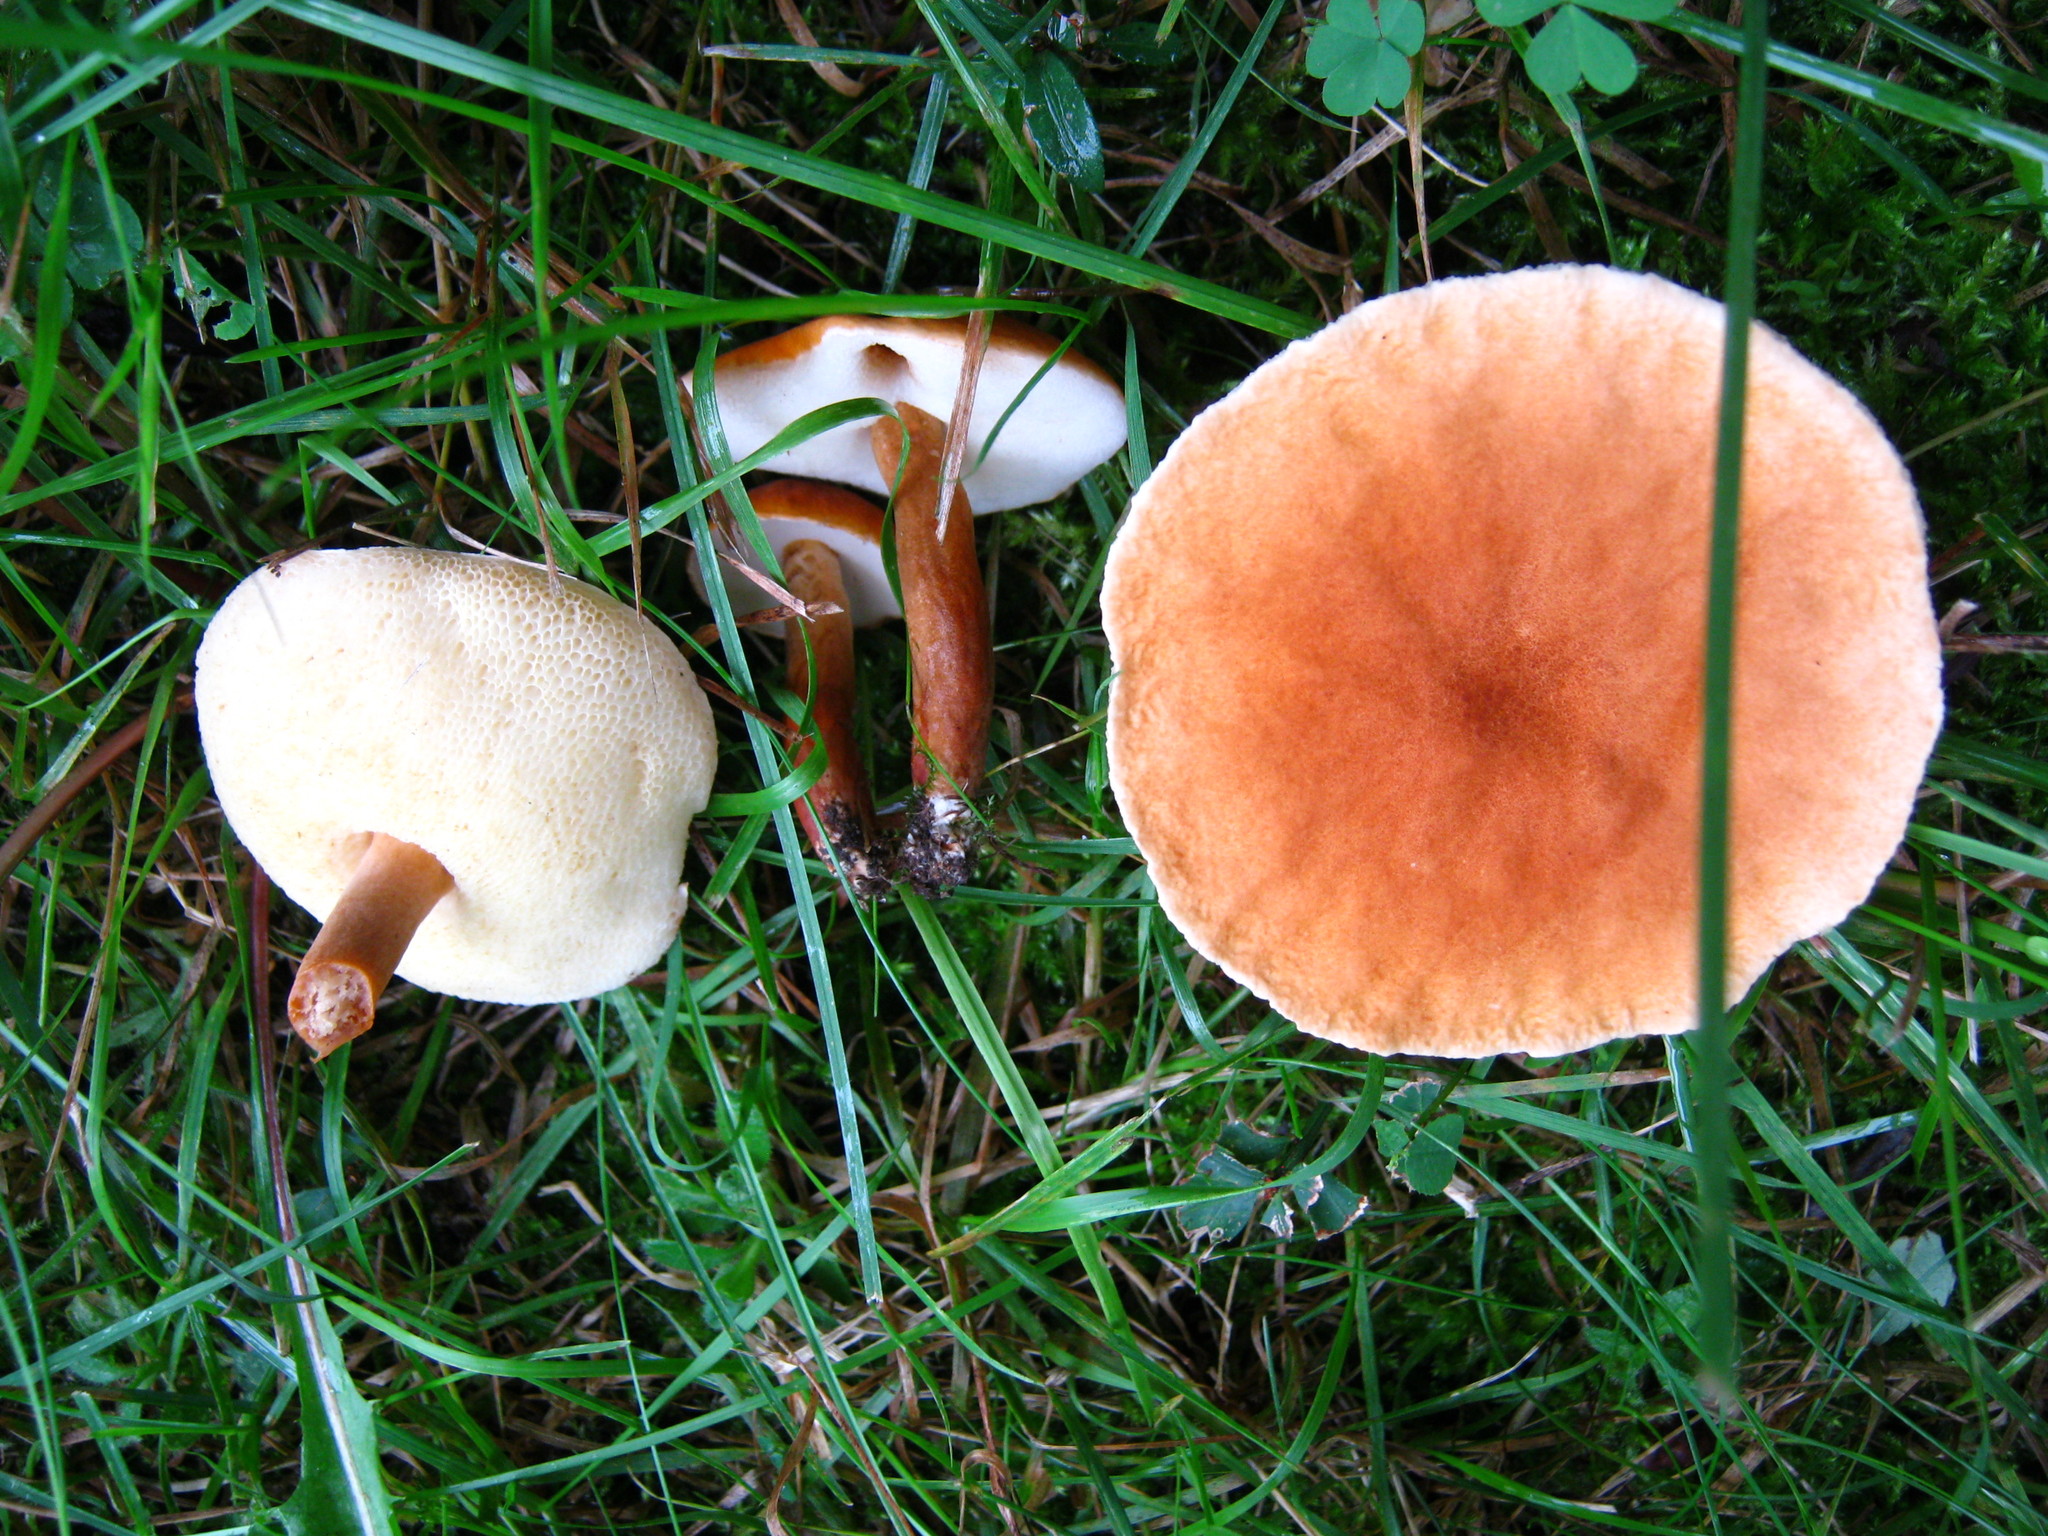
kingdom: Fungi
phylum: Basidiomycota
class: Agaricomycetes
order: Boletales
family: Gyroporaceae
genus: Gyroporus
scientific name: Gyroporus castaneus
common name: Chestnut bolete
